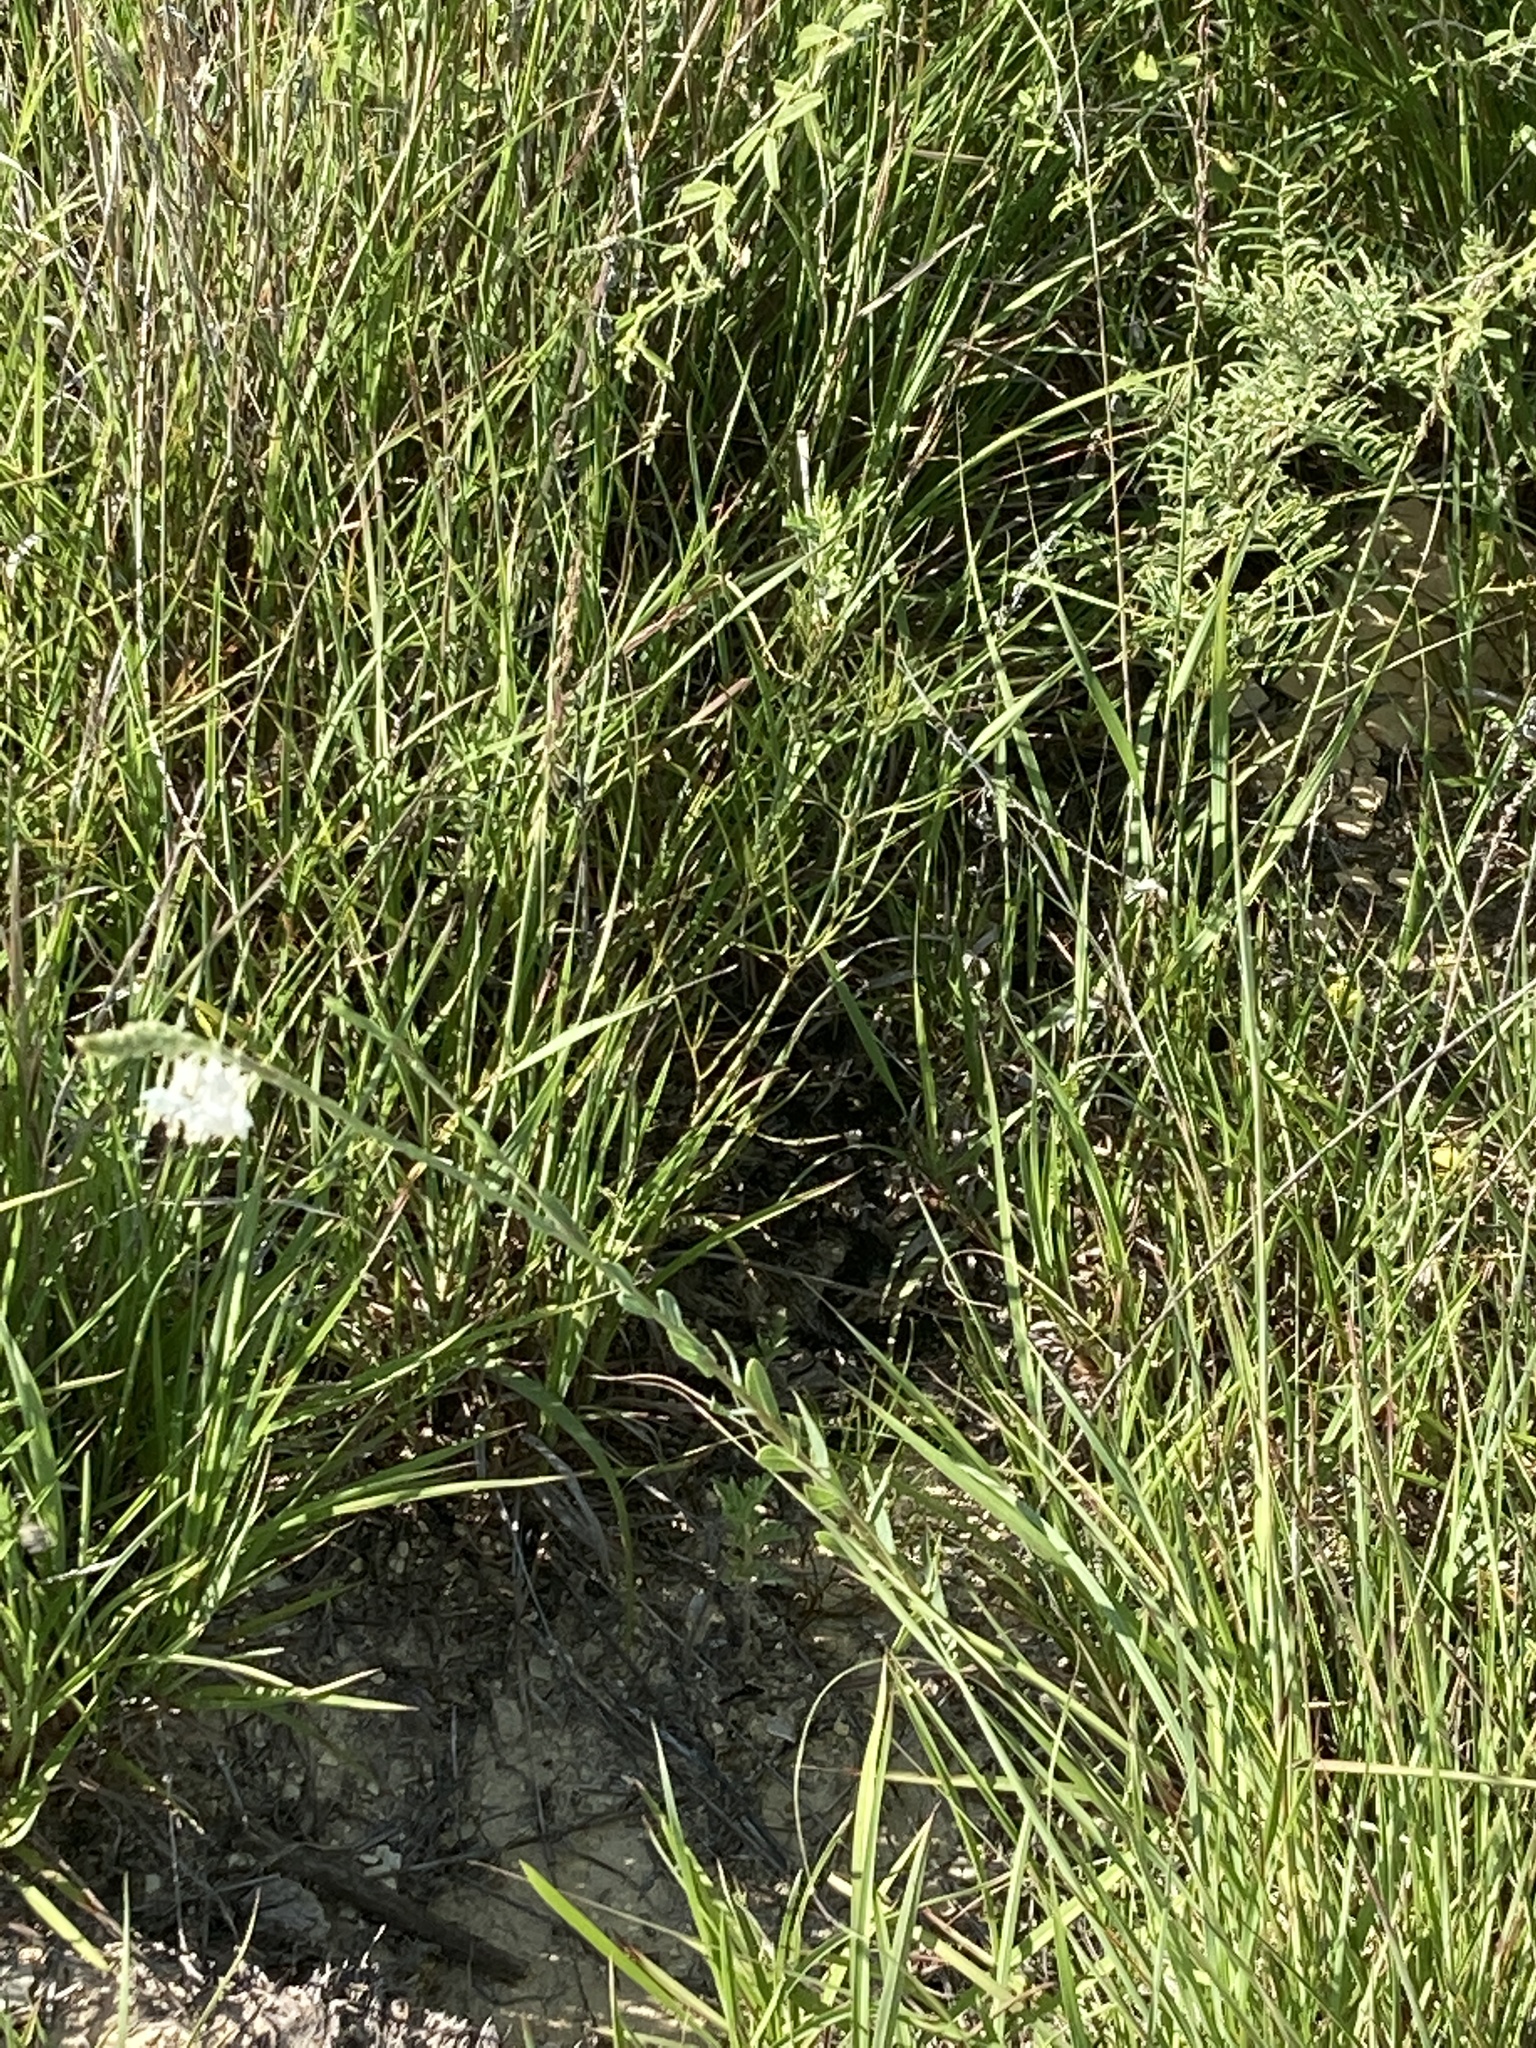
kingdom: Plantae
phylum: Tracheophyta
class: Magnoliopsida
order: Myrtales
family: Onagraceae
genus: Oenothera
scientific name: Oenothera glaucifolia
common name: False gaura
